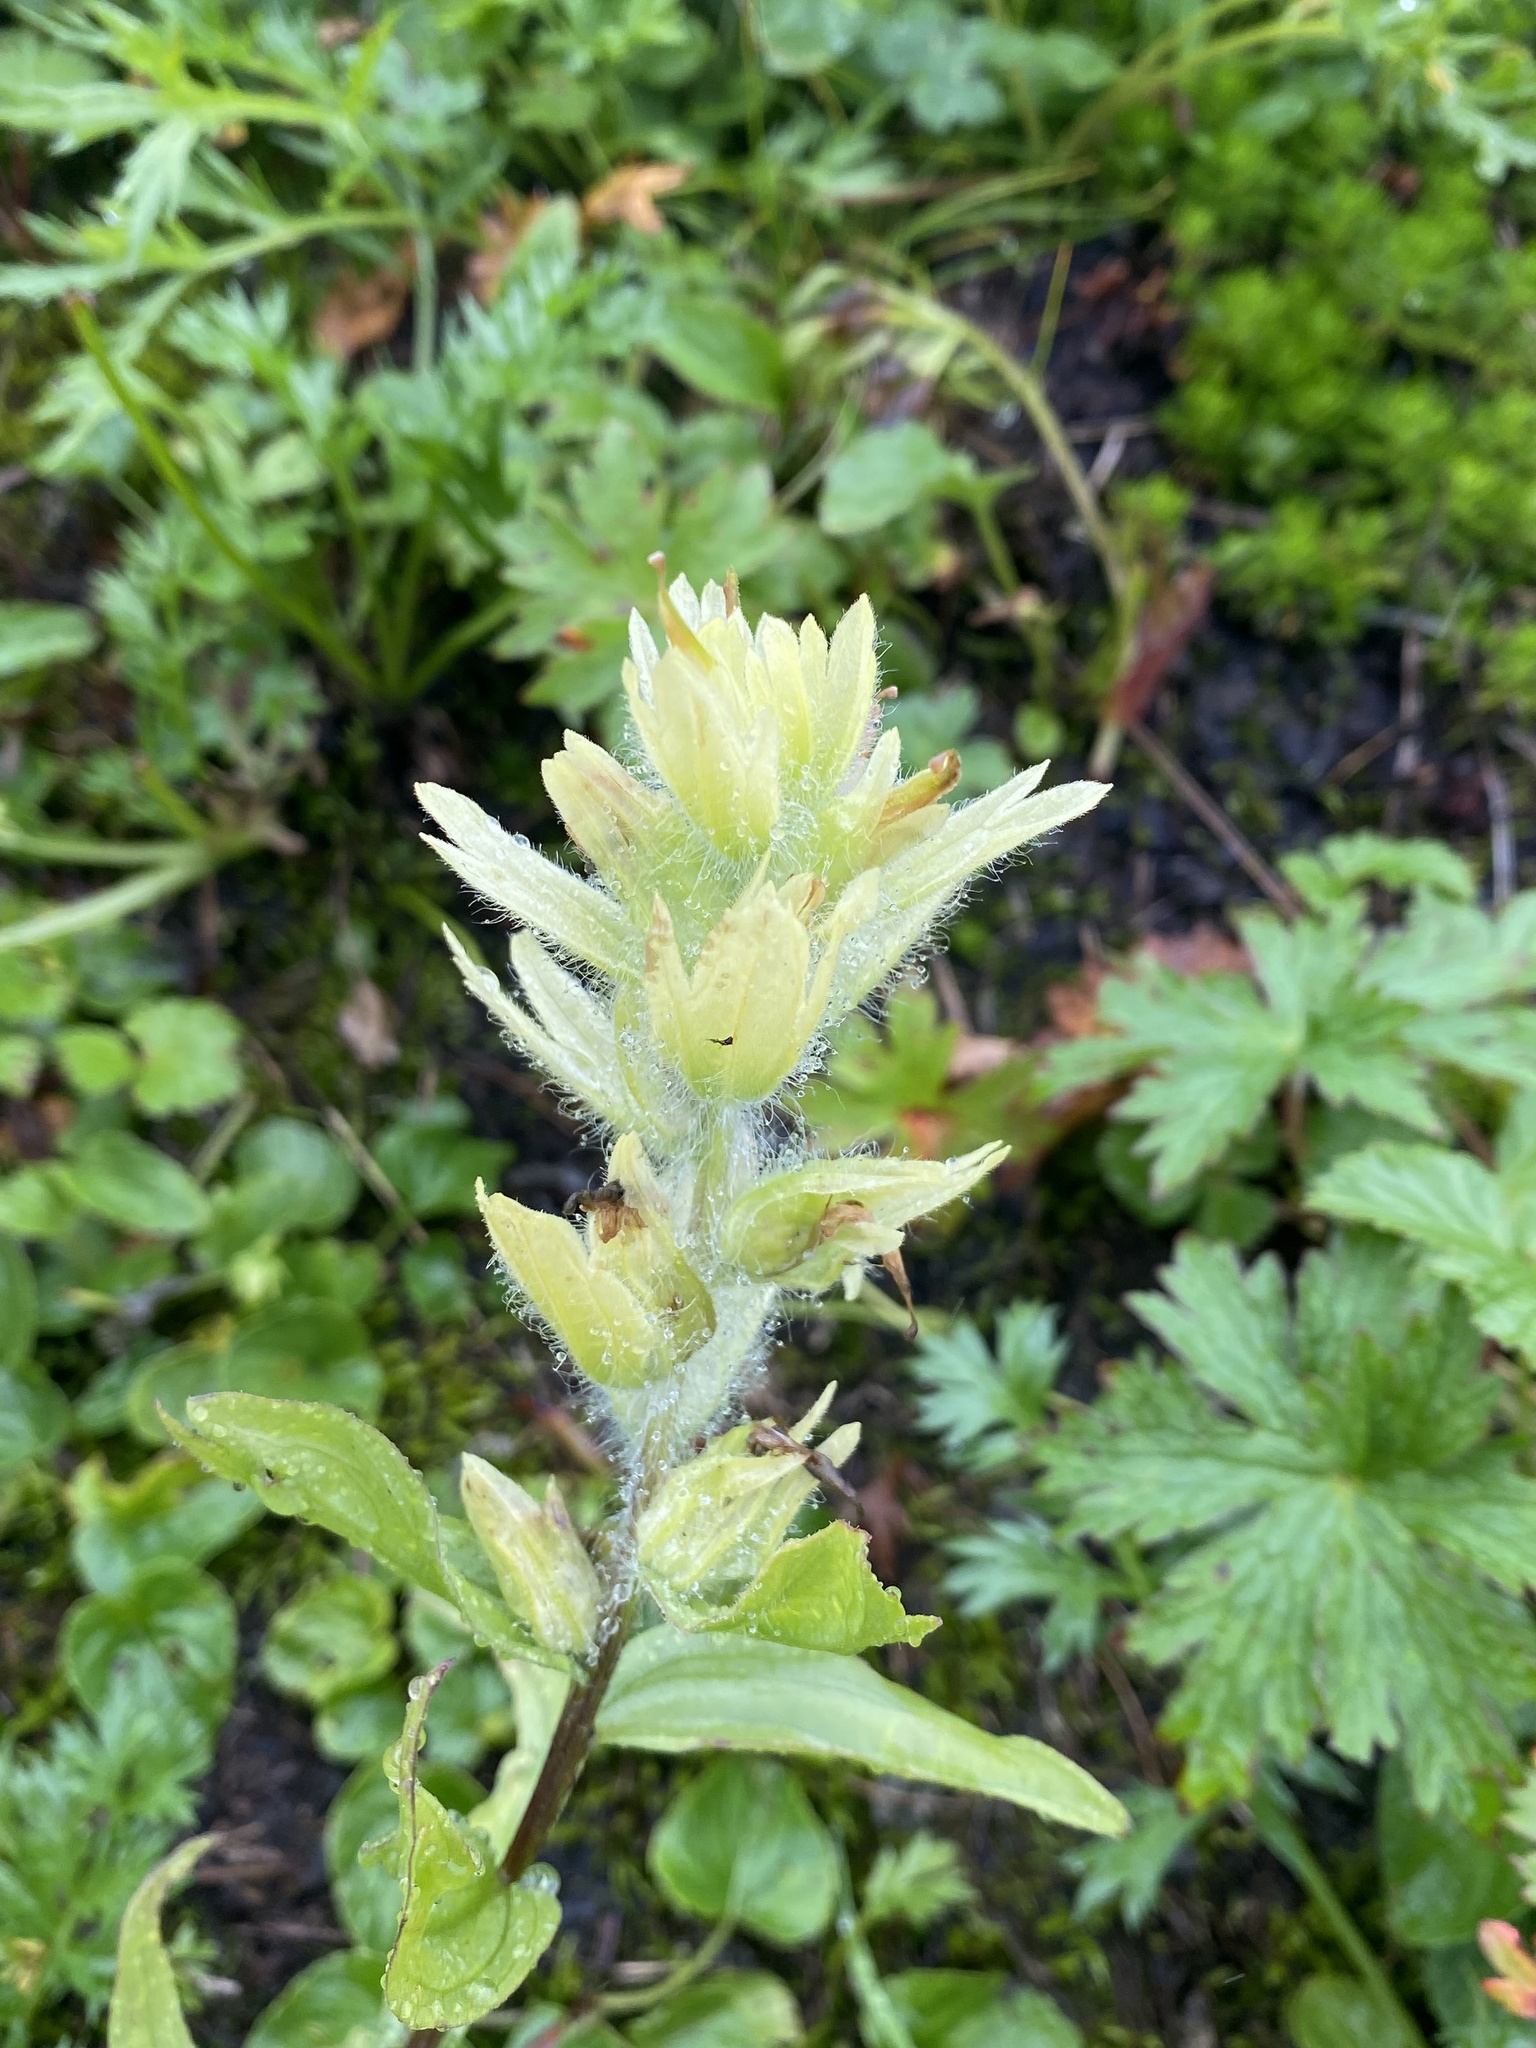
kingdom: Plantae
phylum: Tracheophyta
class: Magnoliopsida
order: Lamiales
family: Orobanchaceae
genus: Castilleja
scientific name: Castilleja unalaschcensis
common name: Unalaska paintbrush
